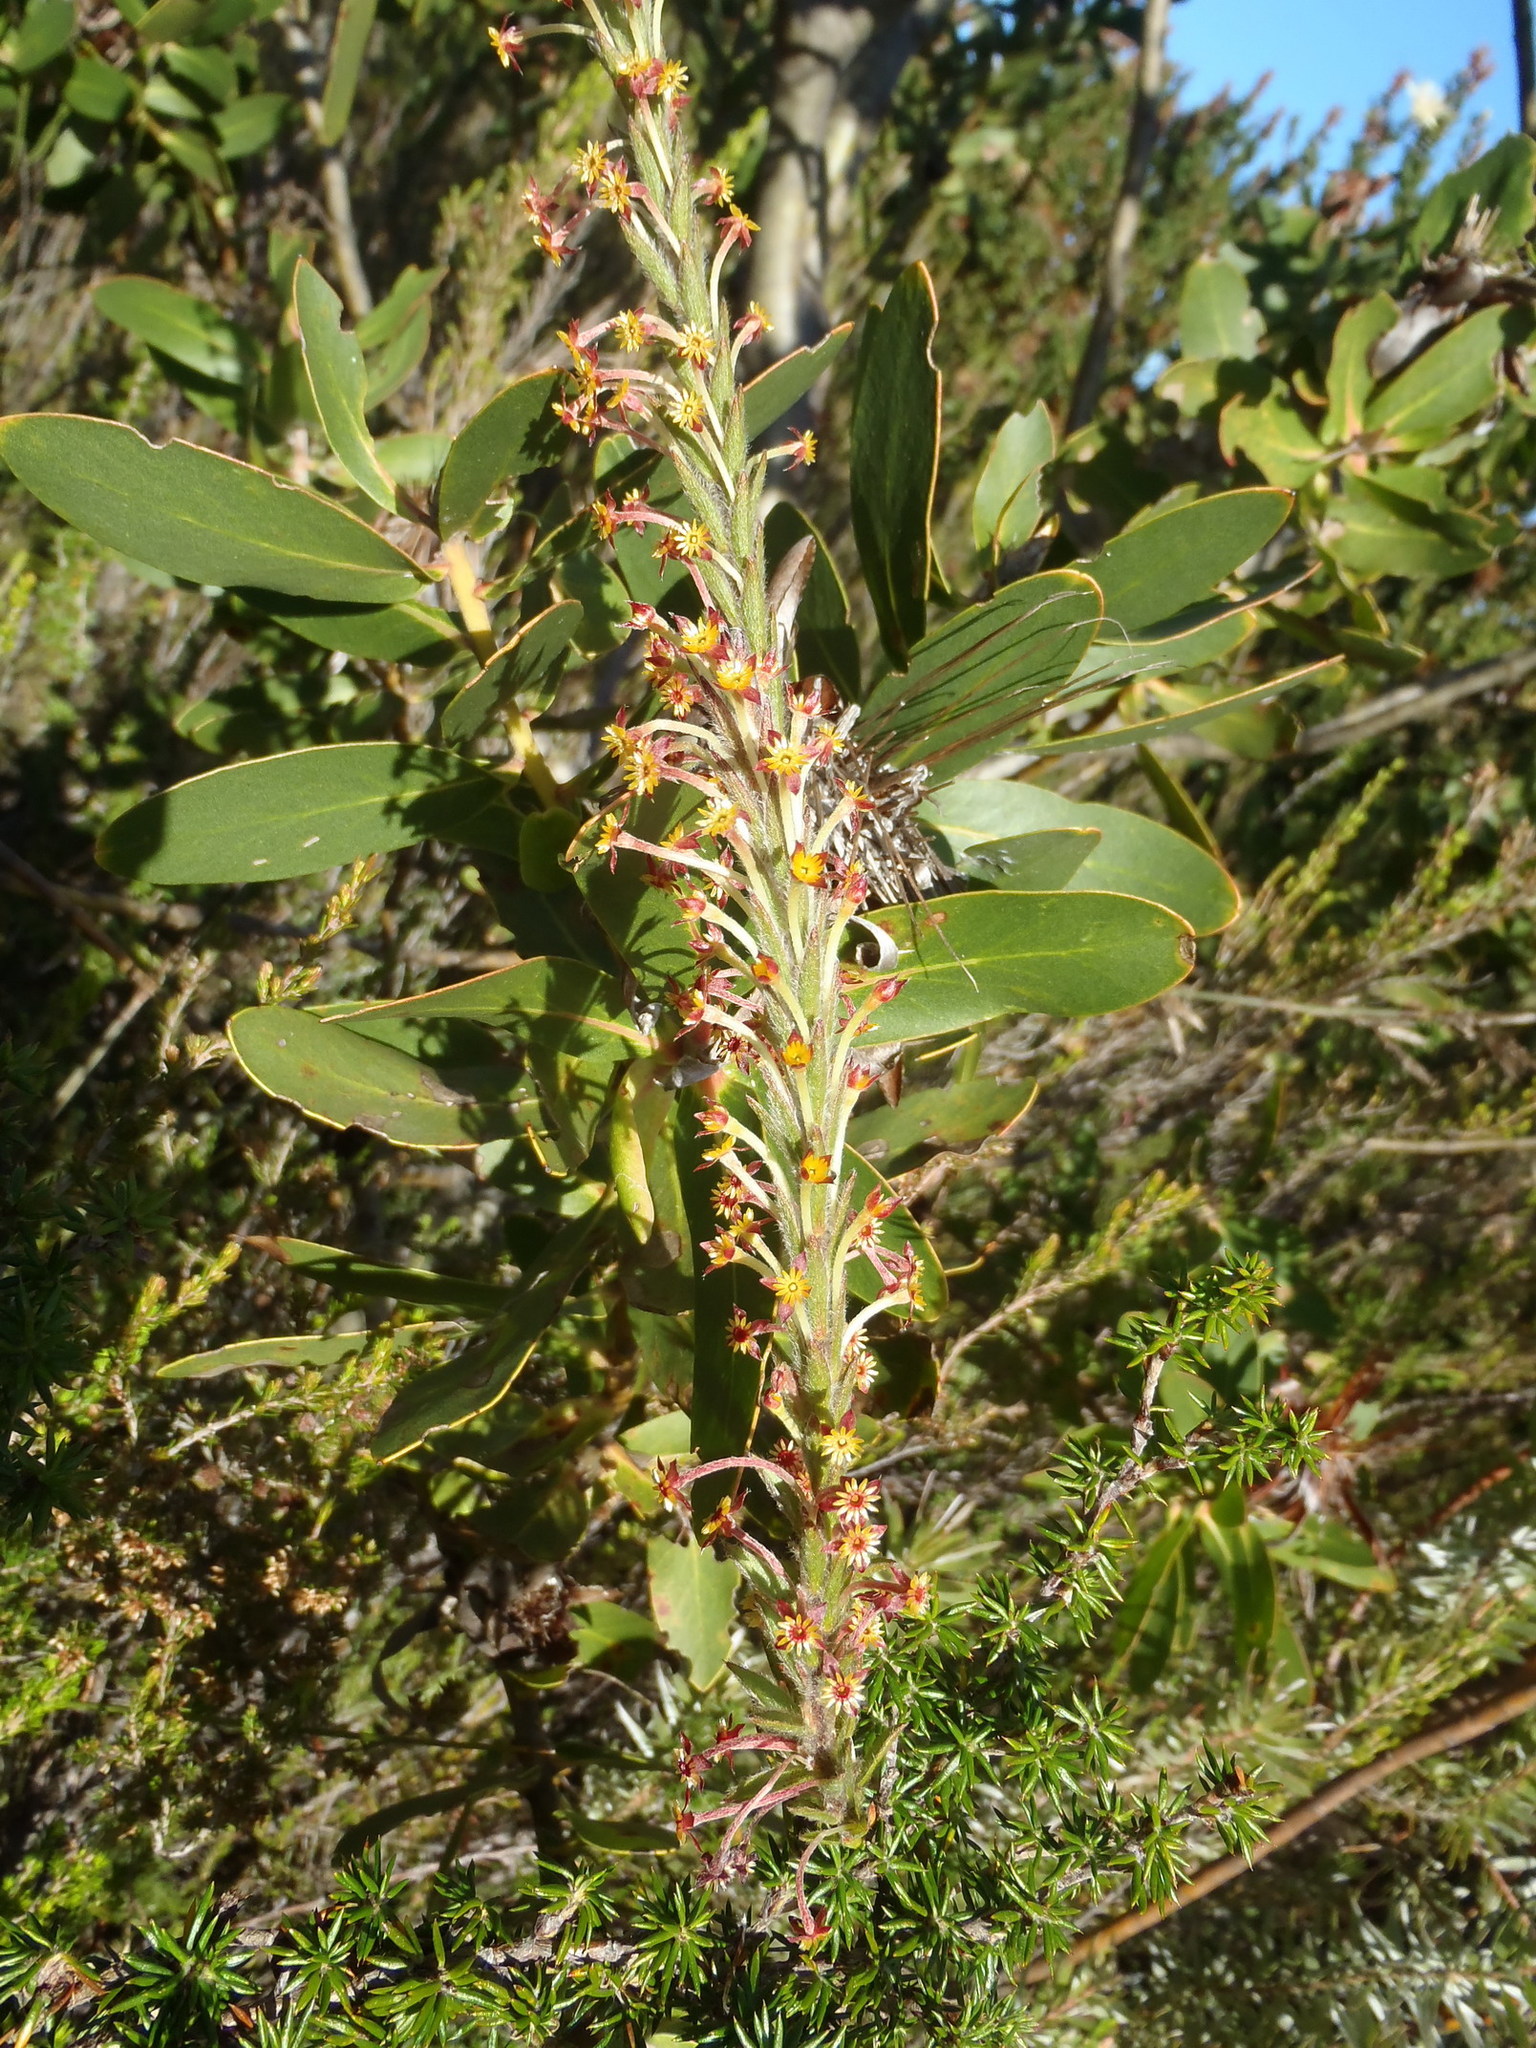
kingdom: Plantae
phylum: Tracheophyta
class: Magnoliopsida
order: Malvales
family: Thymelaeaceae
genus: Struthiola
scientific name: Struthiola tomentosa
